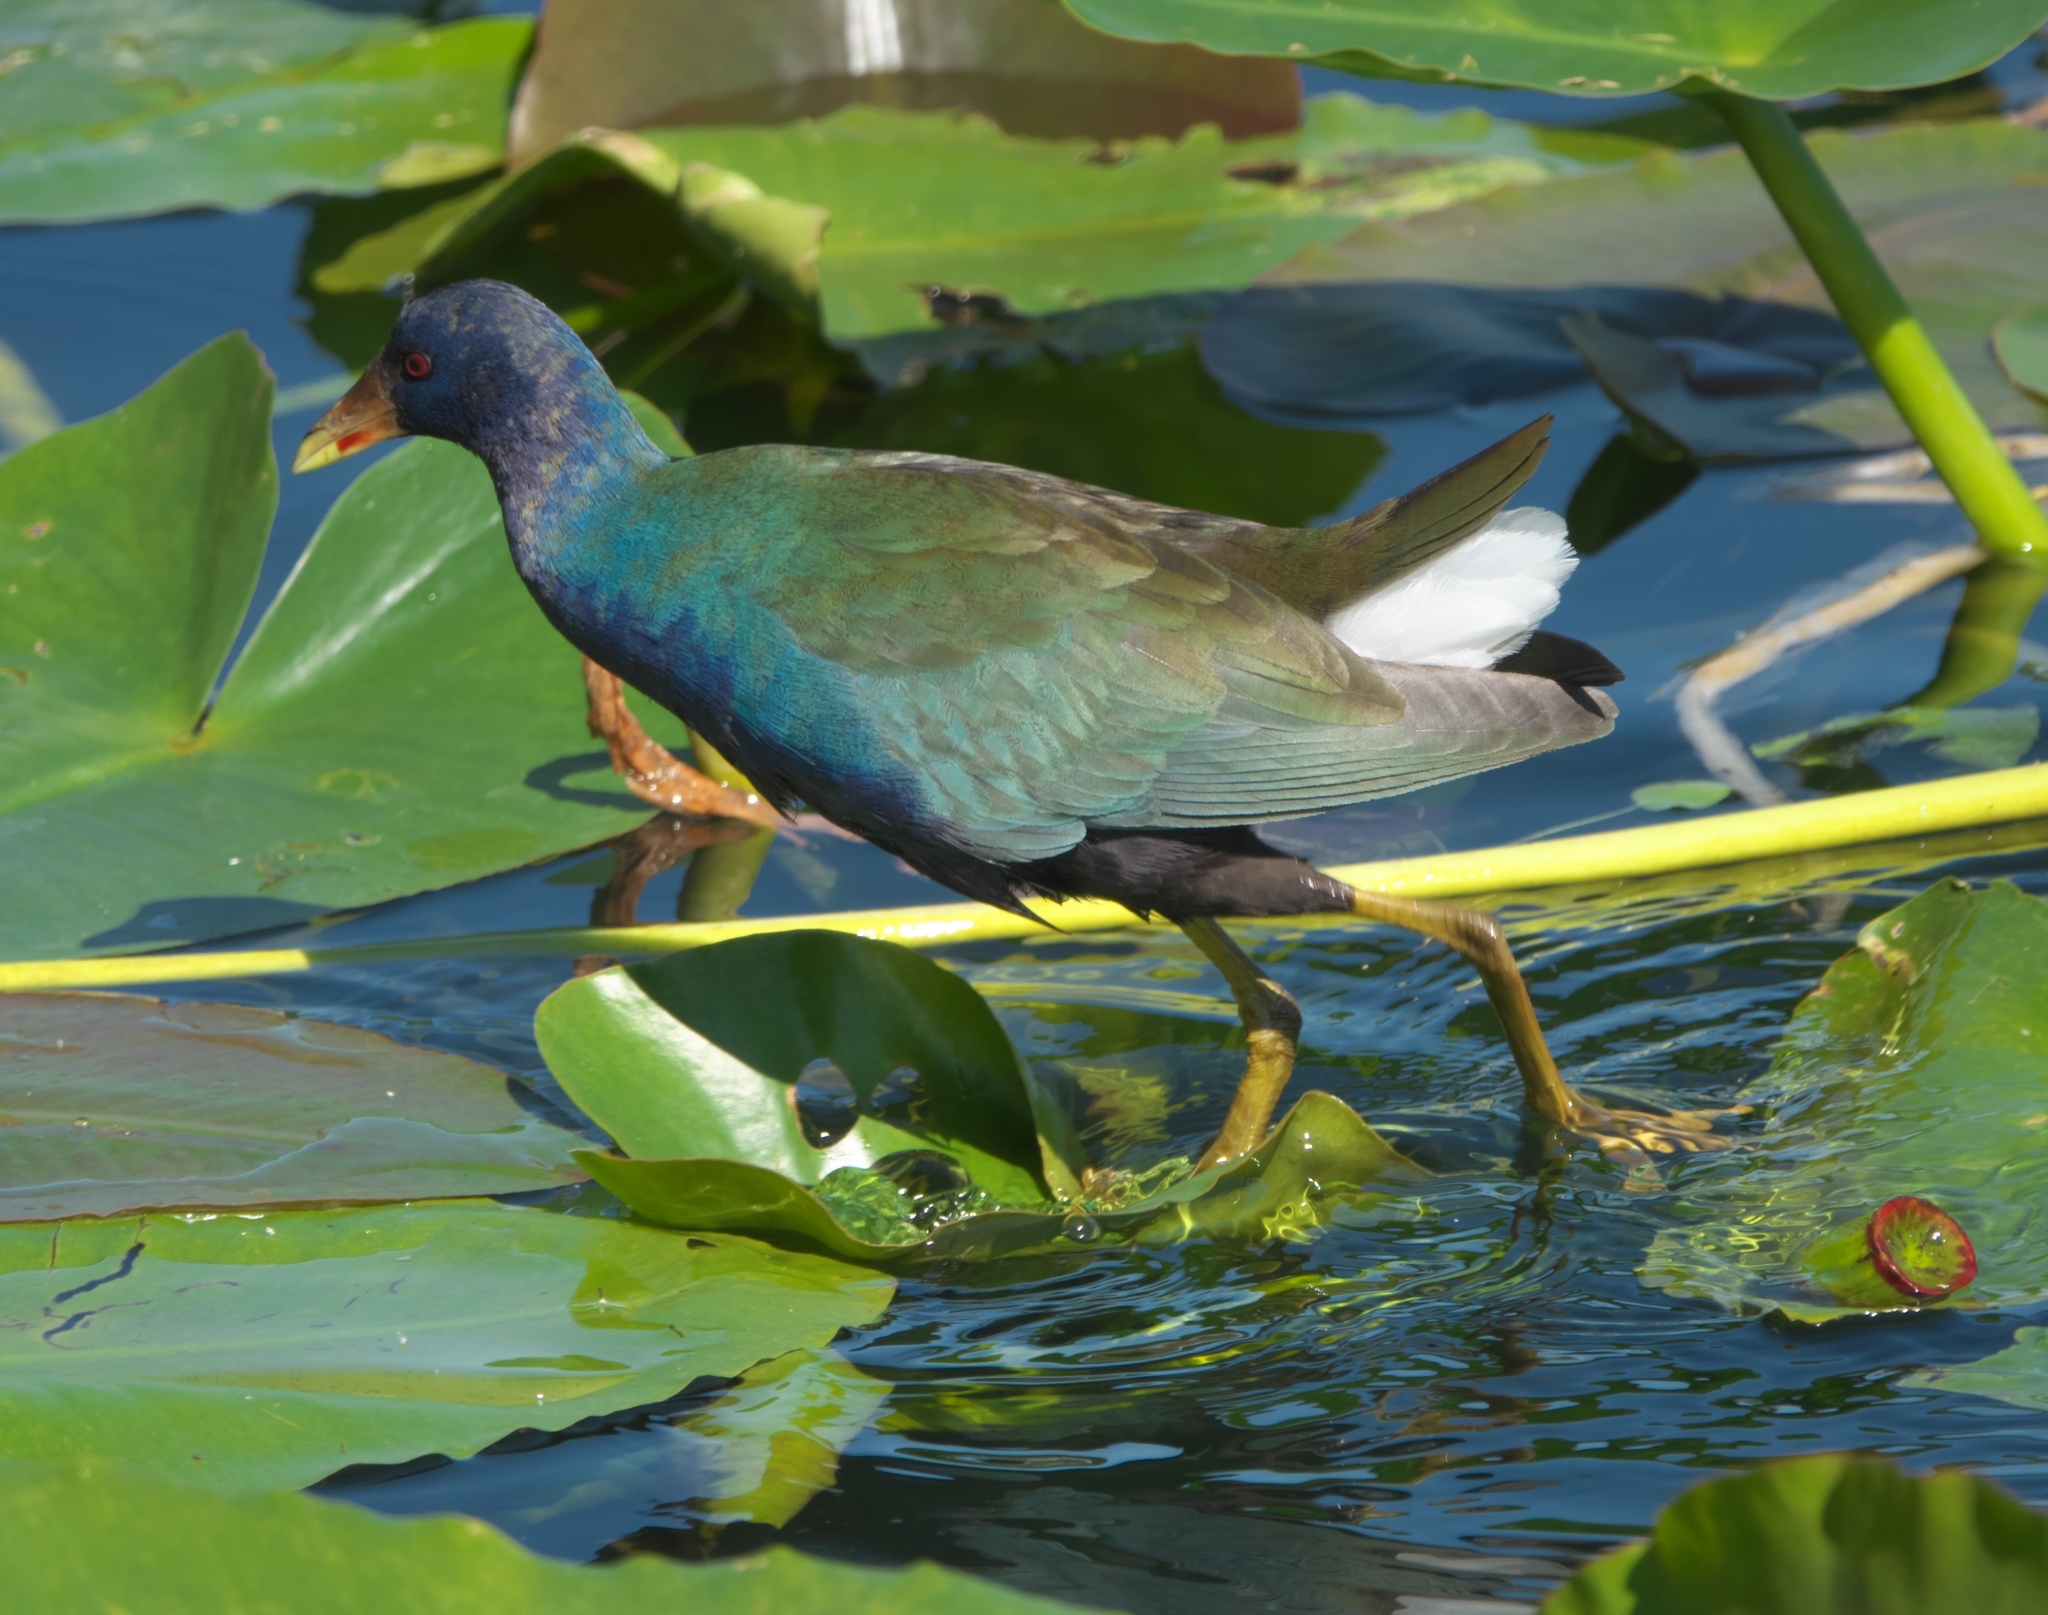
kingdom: Animalia
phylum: Chordata
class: Aves
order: Gruiformes
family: Rallidae
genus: Porphyrio
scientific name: Porphyrio martinica
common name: Purple gallinule
